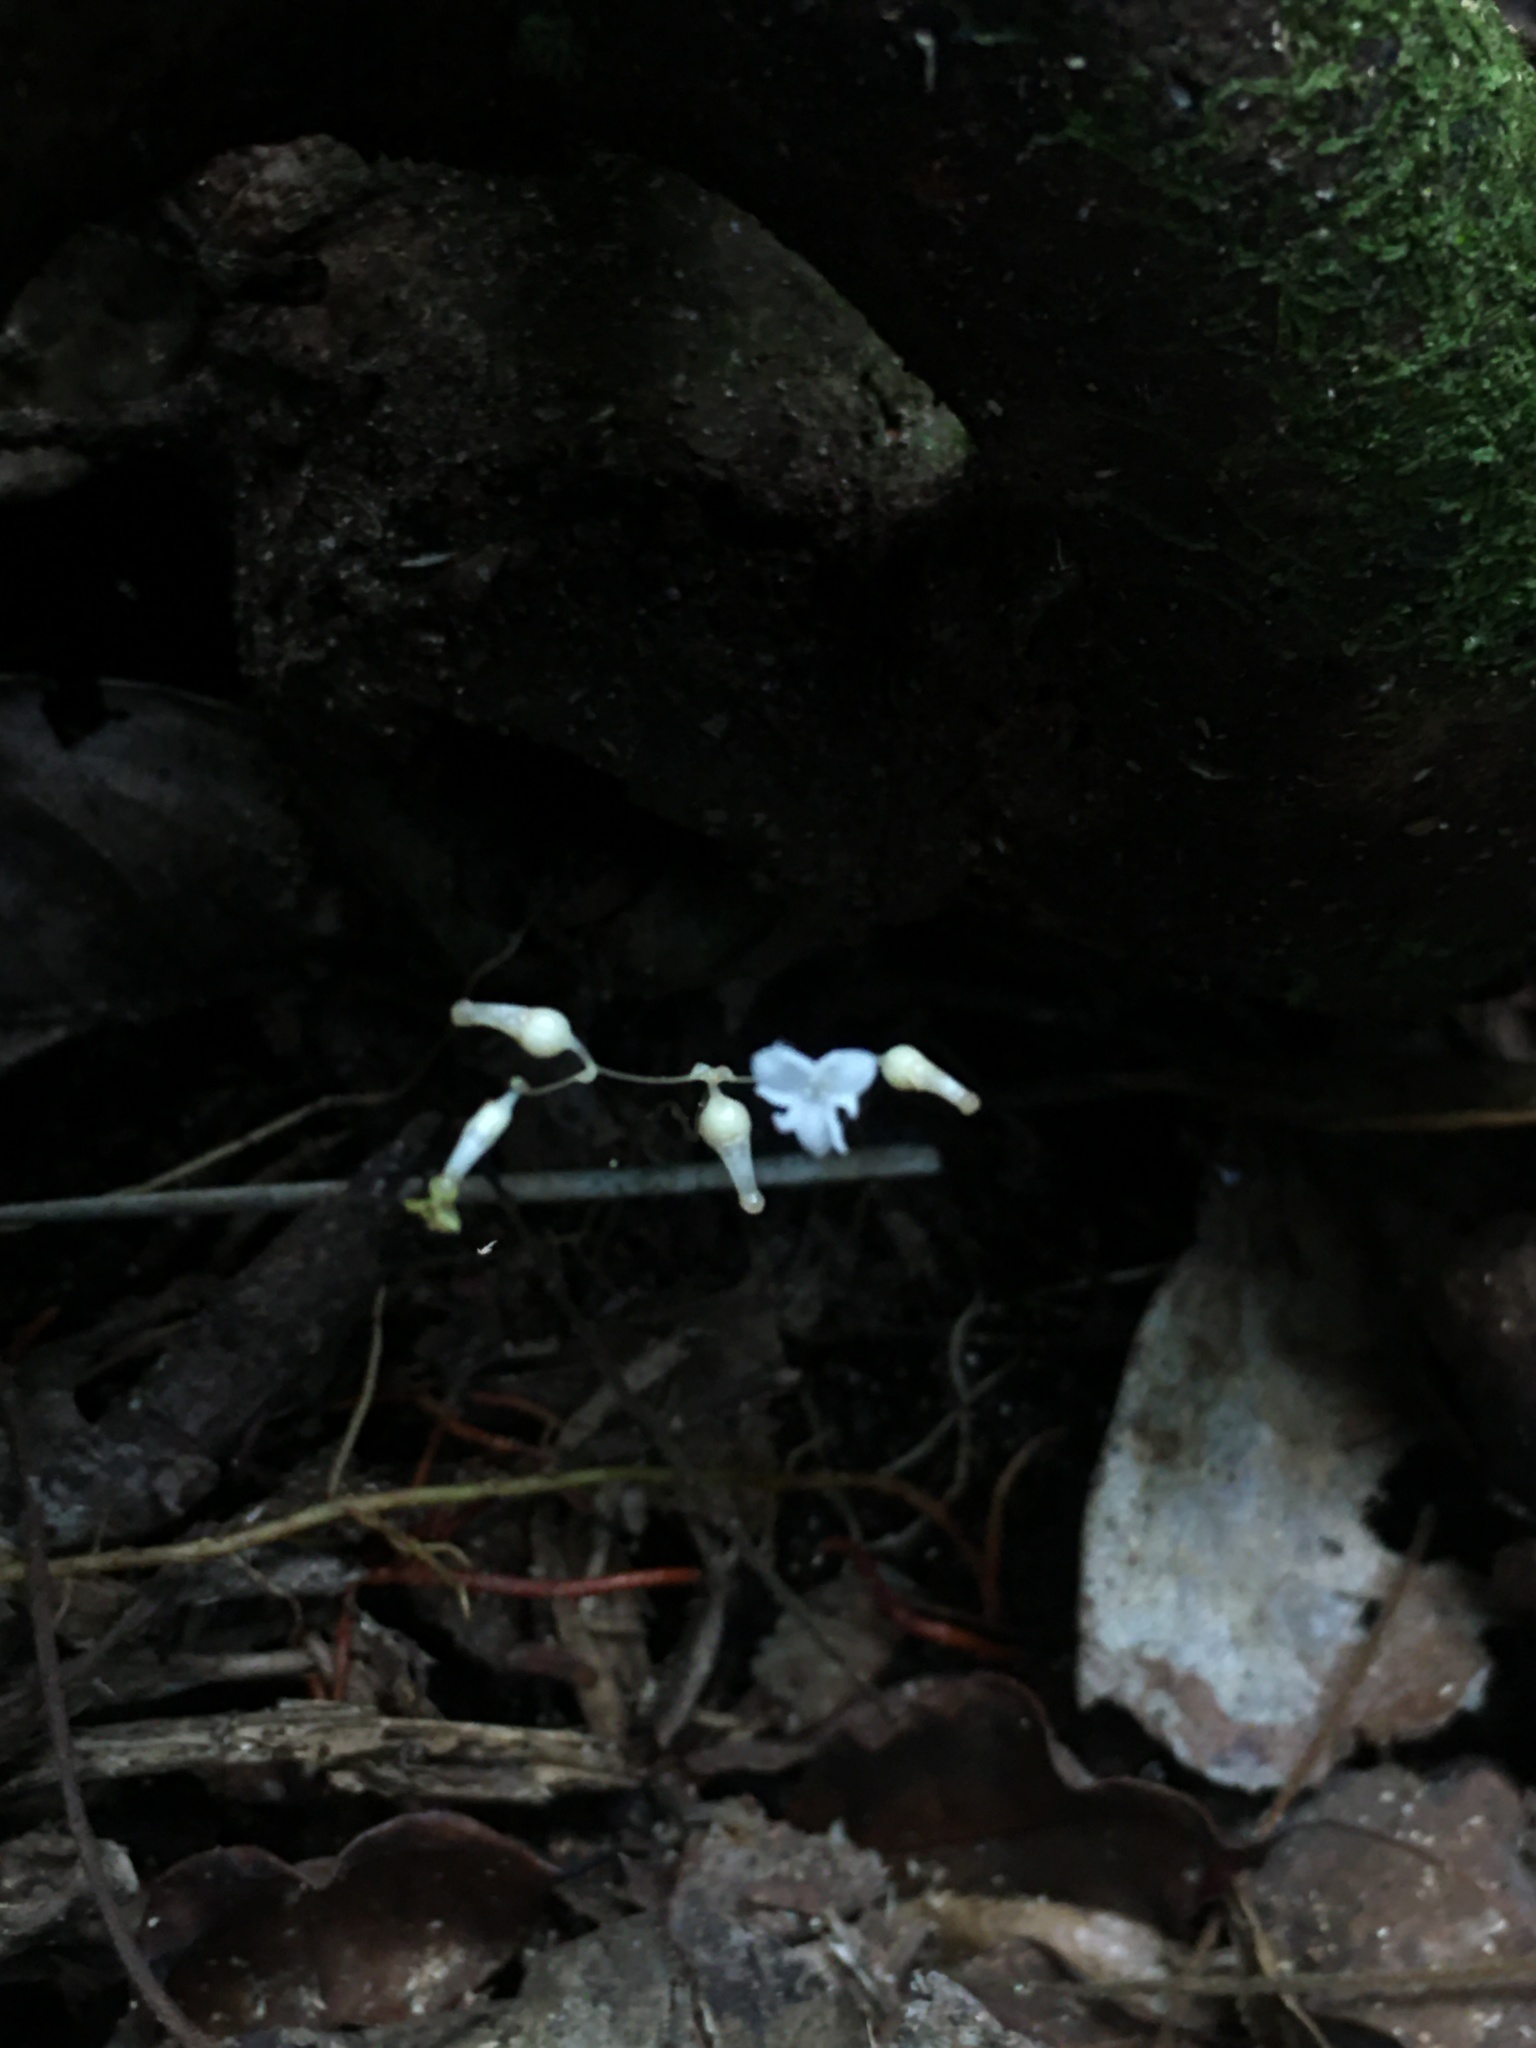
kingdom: Plantae
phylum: Tracheophyta
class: Liliopsida
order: Dioscoreales
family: Burmanniaceae
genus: Gymnosiphon
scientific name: Gymnosiphon divaricatus
